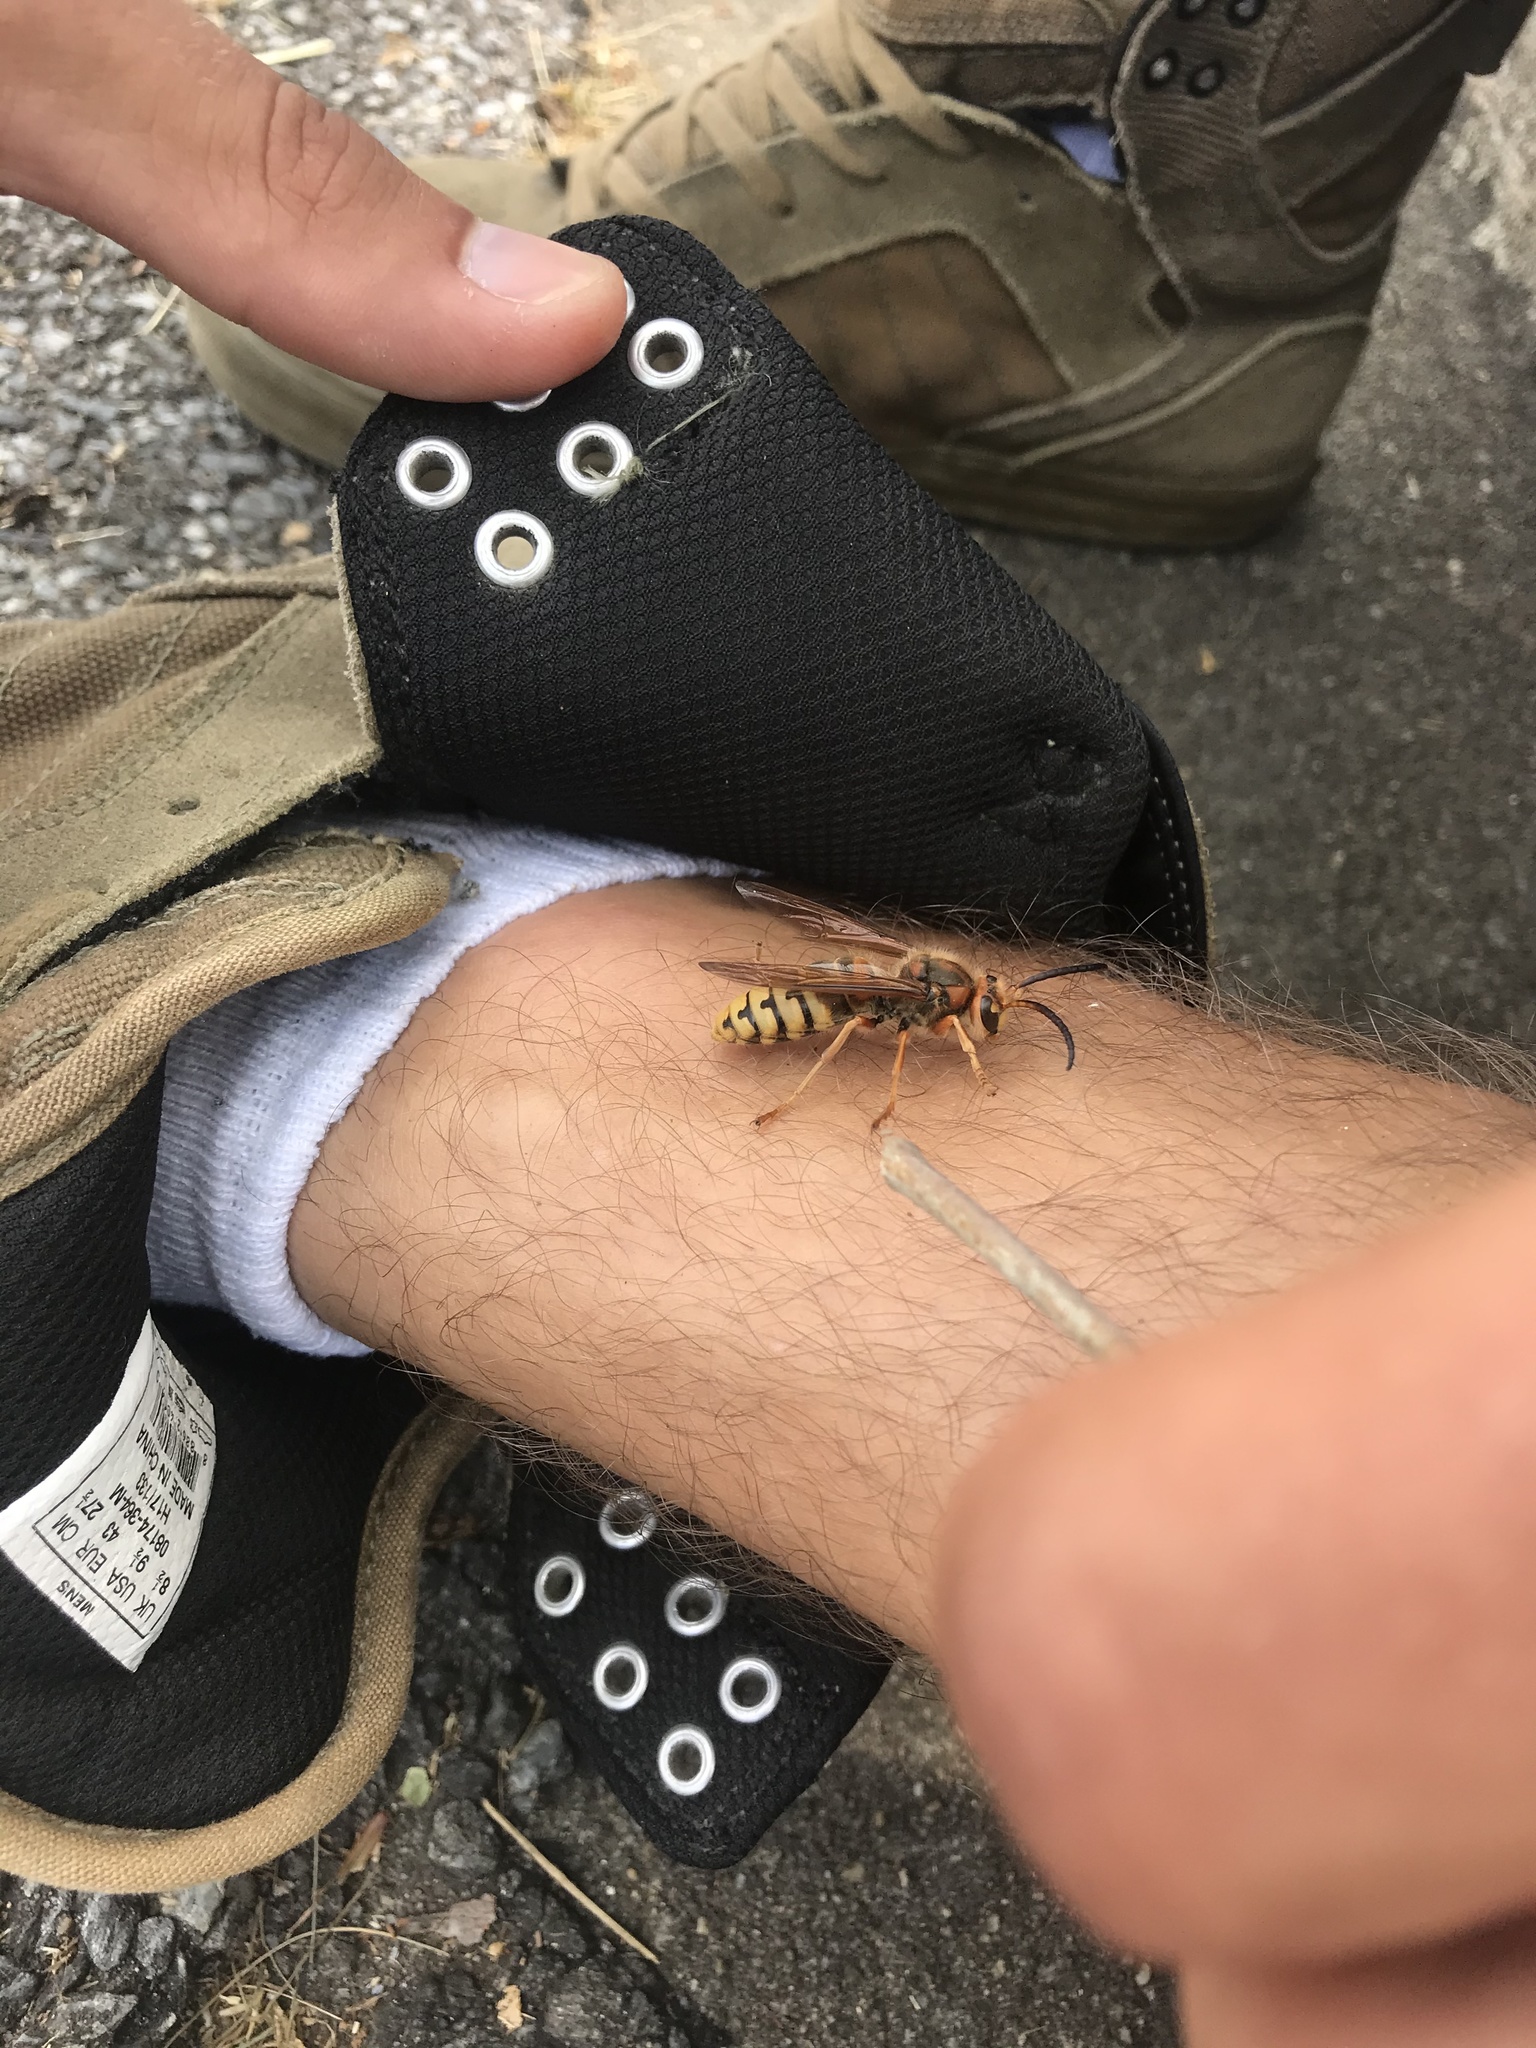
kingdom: Animalia
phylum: Arthropoda
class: Insecta
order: Hymenoptera
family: Vespidae
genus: Vespa
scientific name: Vespa crabro
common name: Hornet
